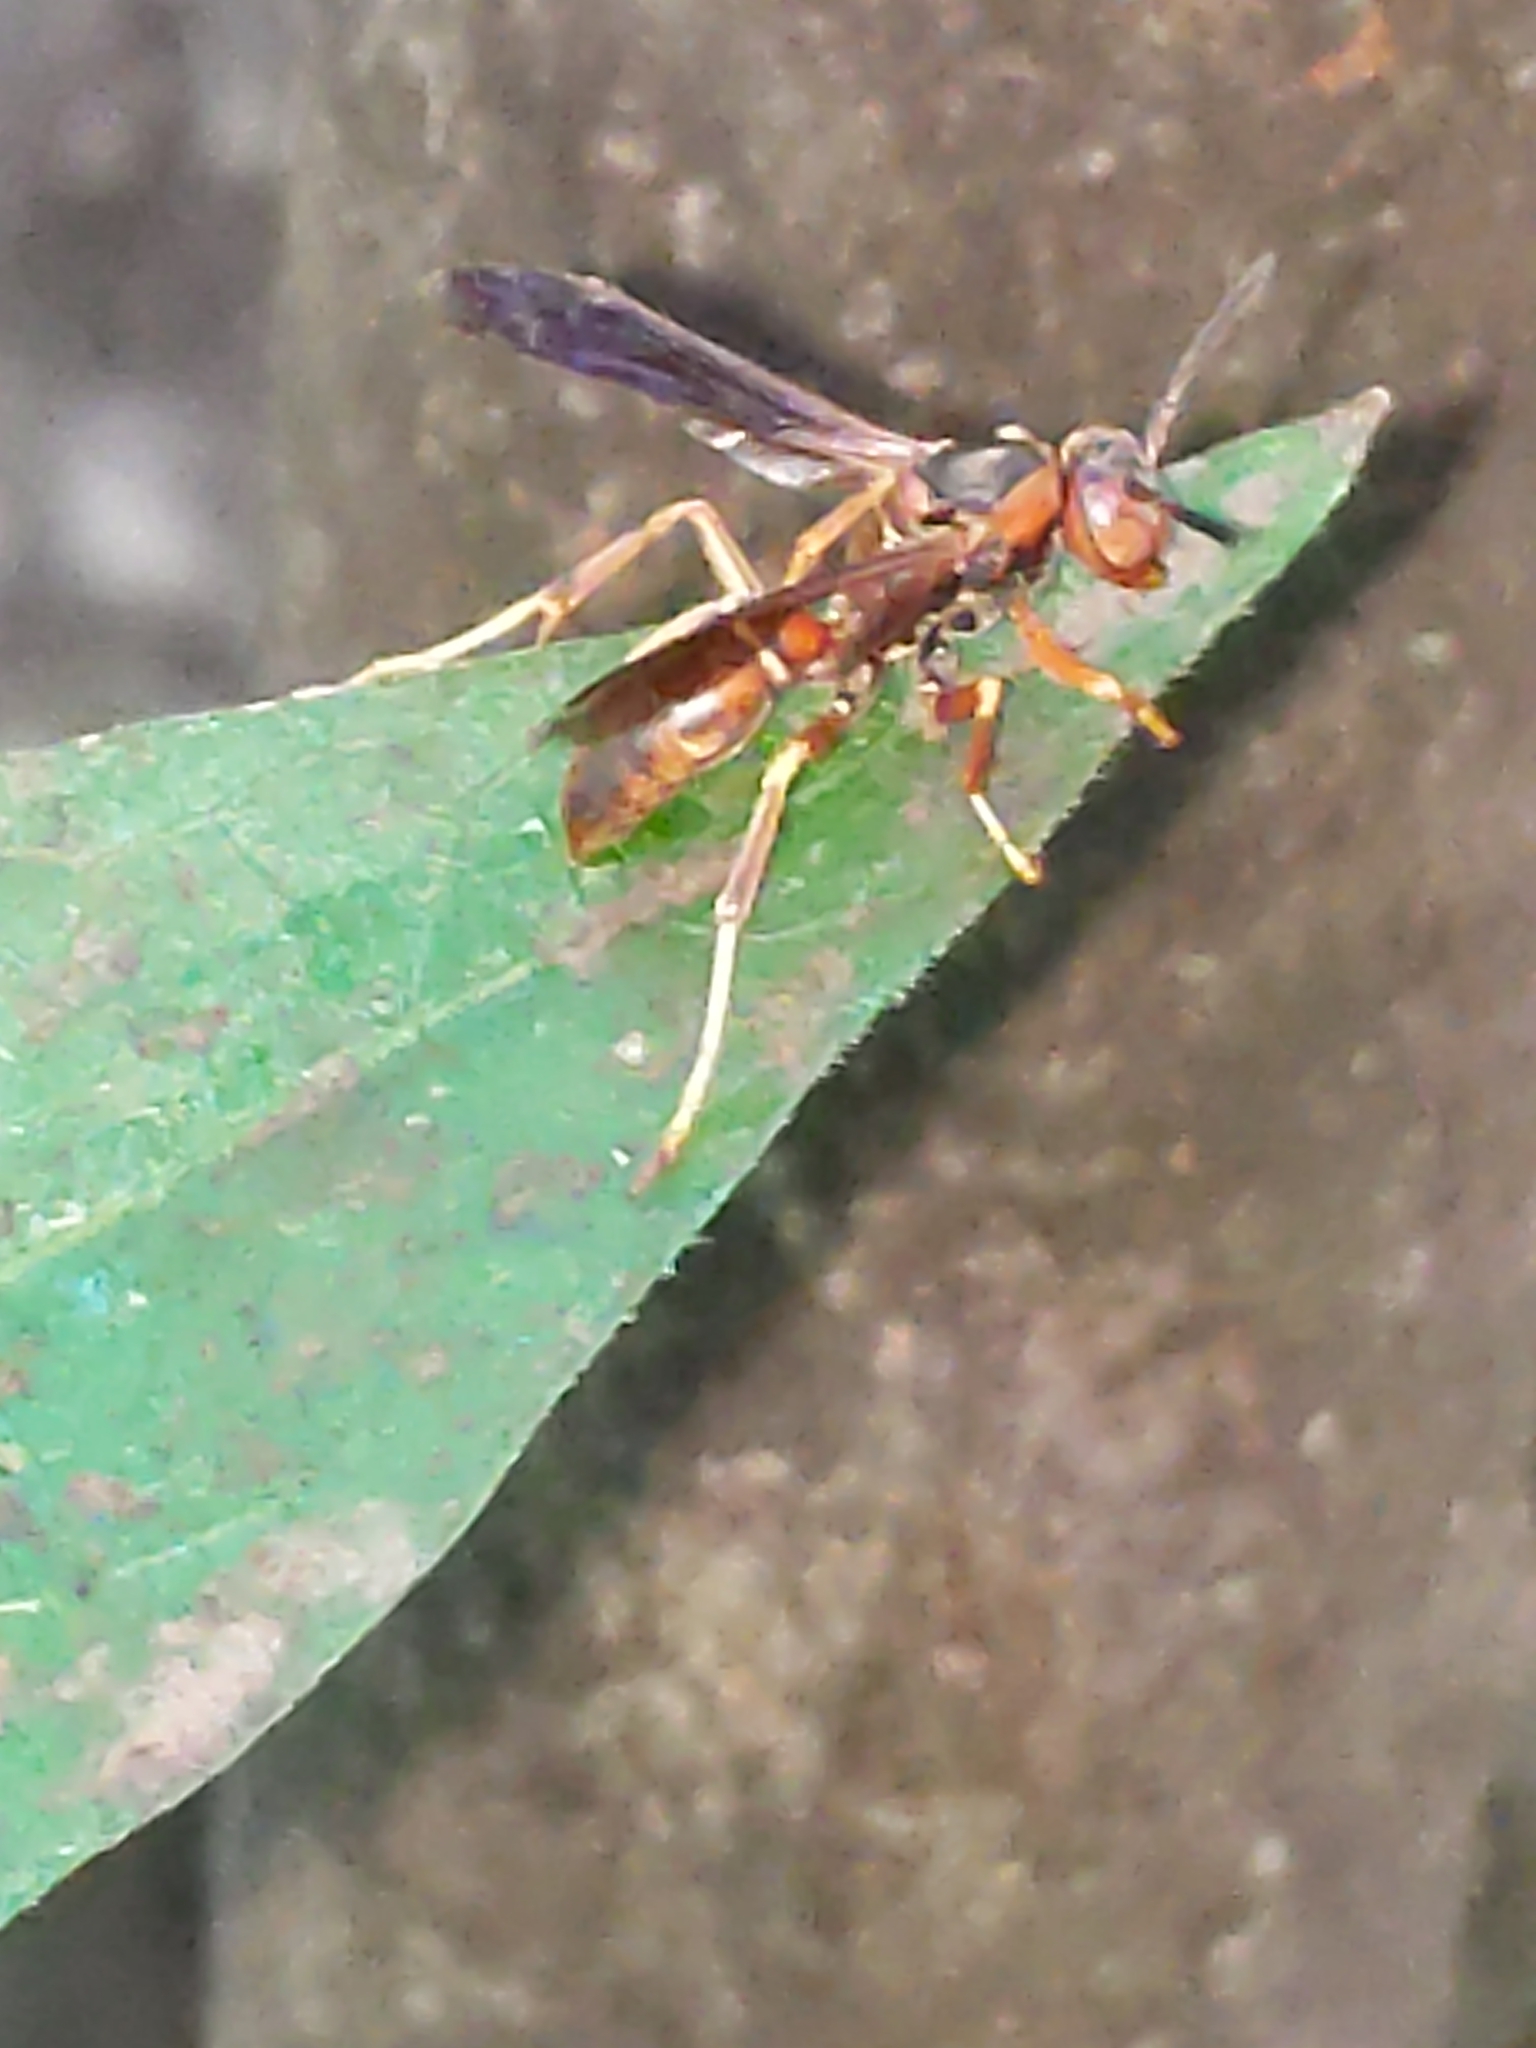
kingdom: Animalia
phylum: Arthropoda
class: Insecta
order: Hymenoptera
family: Vespidae
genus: Fuscopolistes
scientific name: Fuscopolistes
